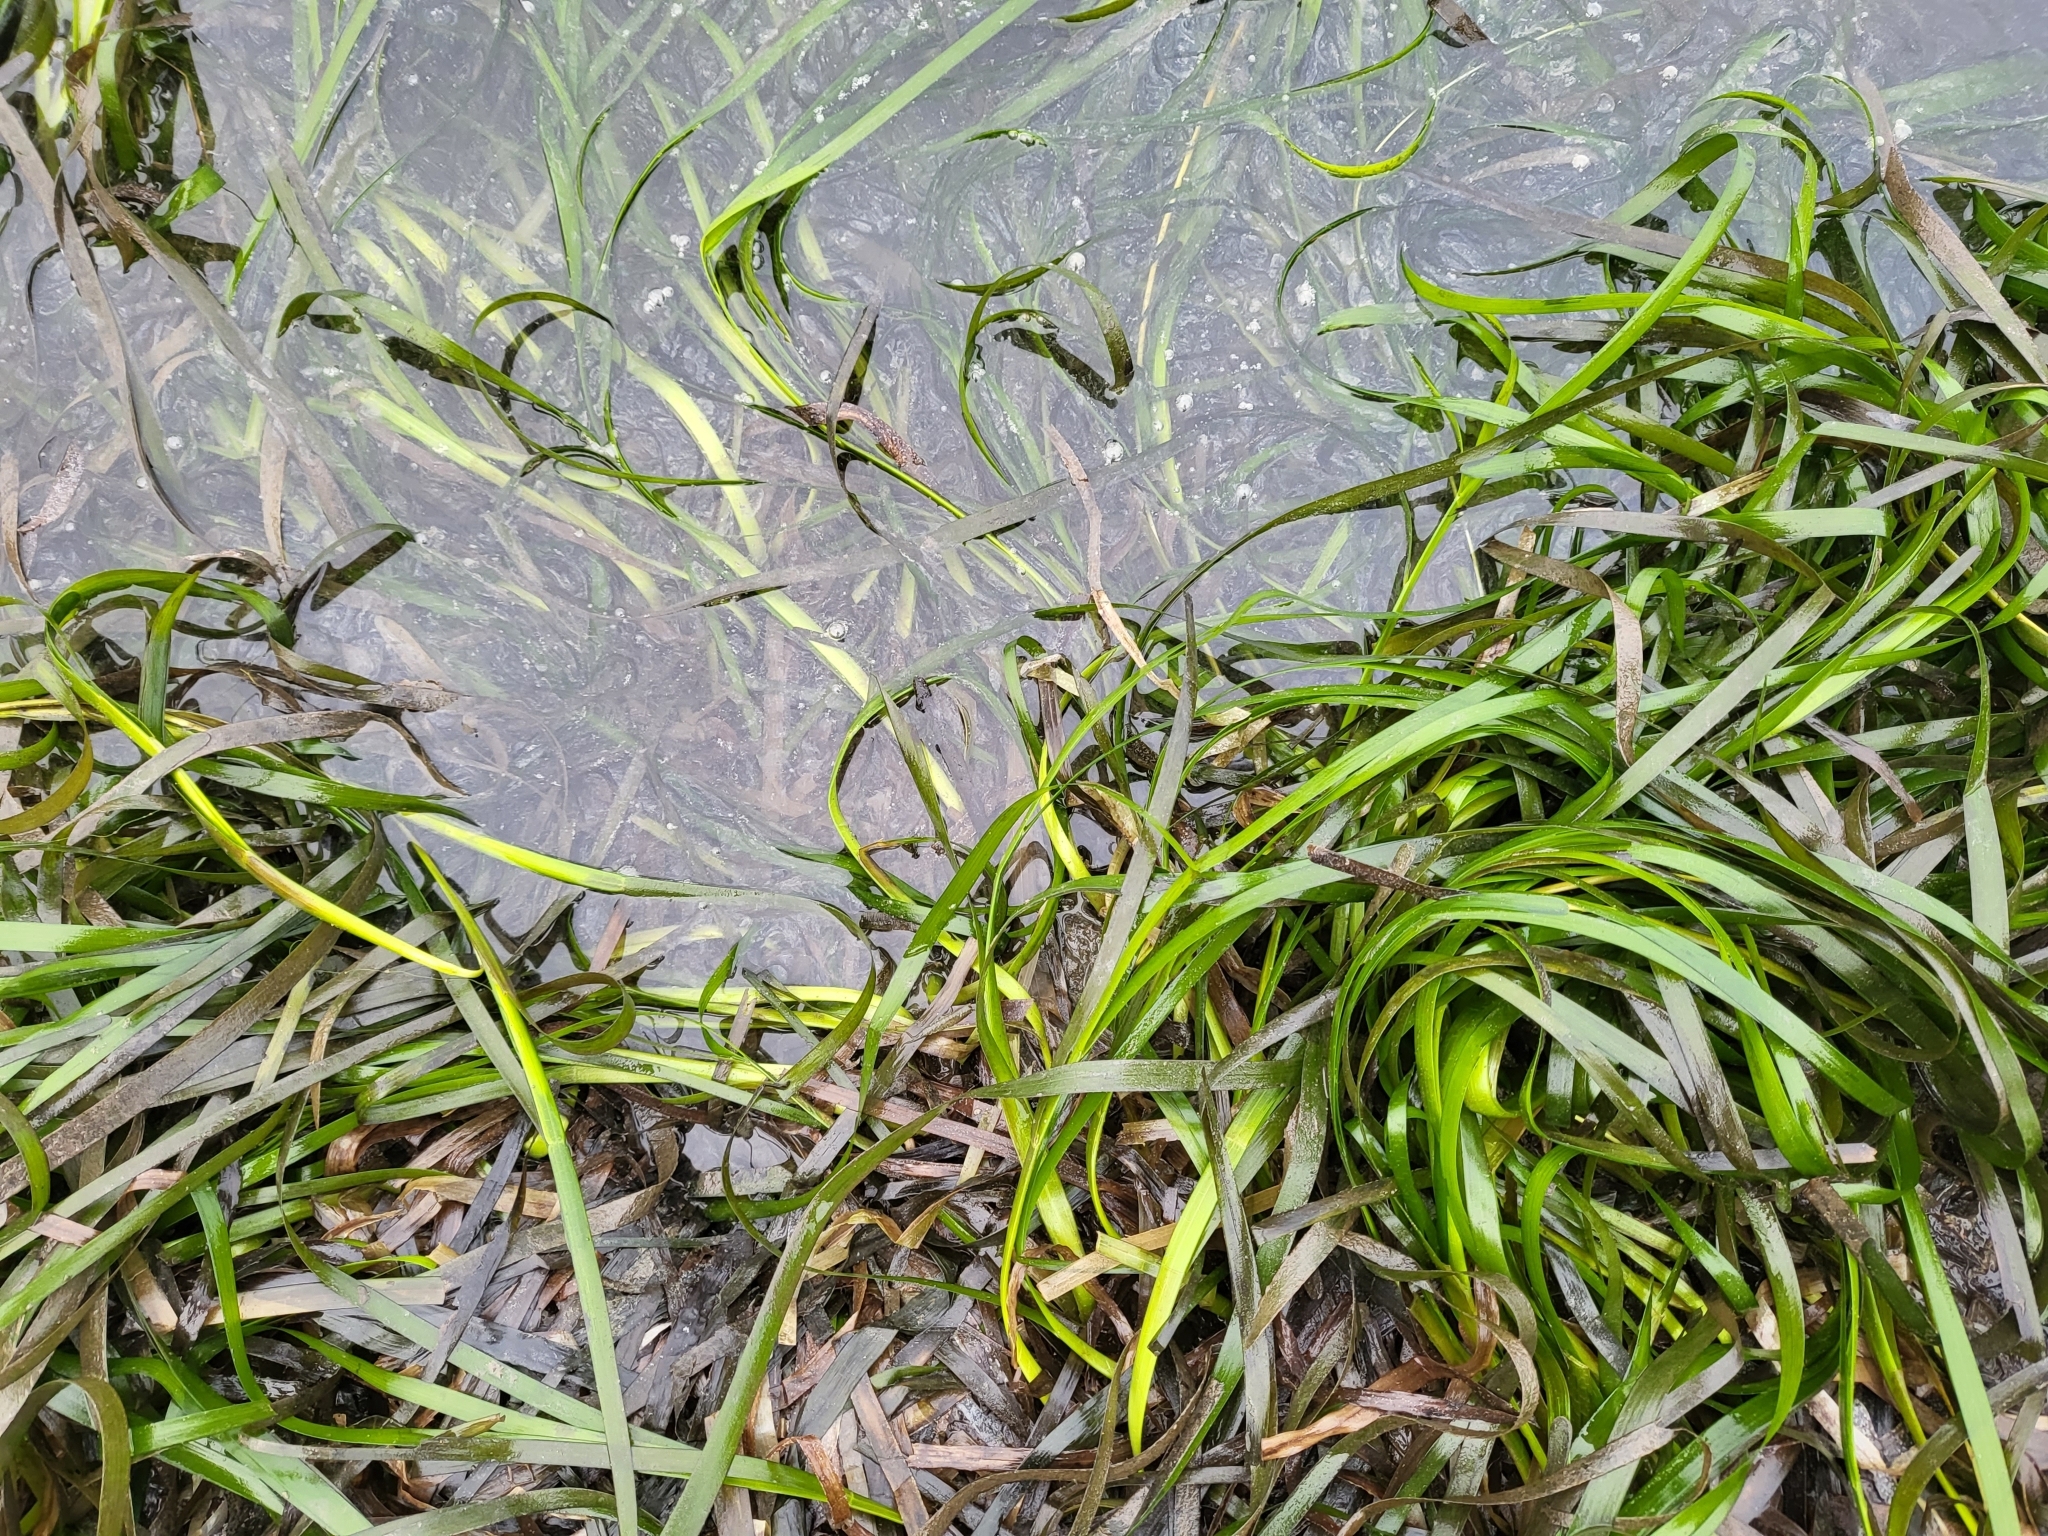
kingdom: Plantae
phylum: Tracheophyta
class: Liliopsida
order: Alismatales
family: Zosteraceae
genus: Zostera
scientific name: Zostera marina
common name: Eelgrass
